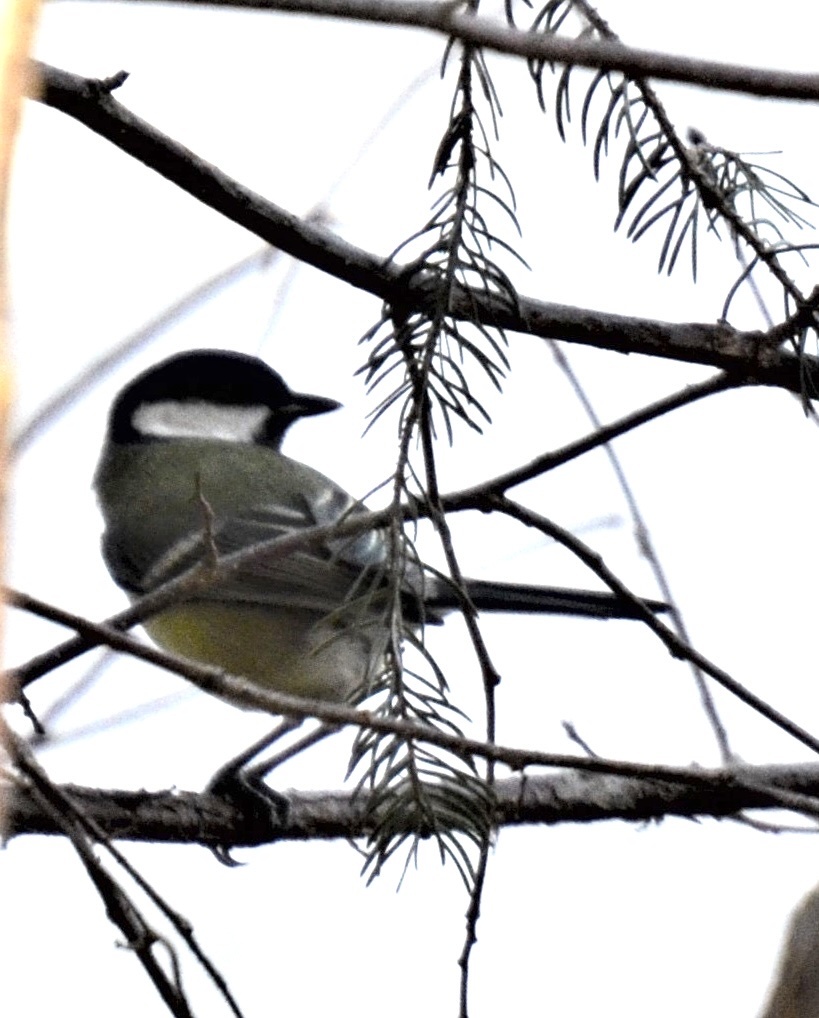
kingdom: Animalia
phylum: Chordata
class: Aves
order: Passeriformes
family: Paridae
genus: Parus
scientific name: Parus major
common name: Great tit
